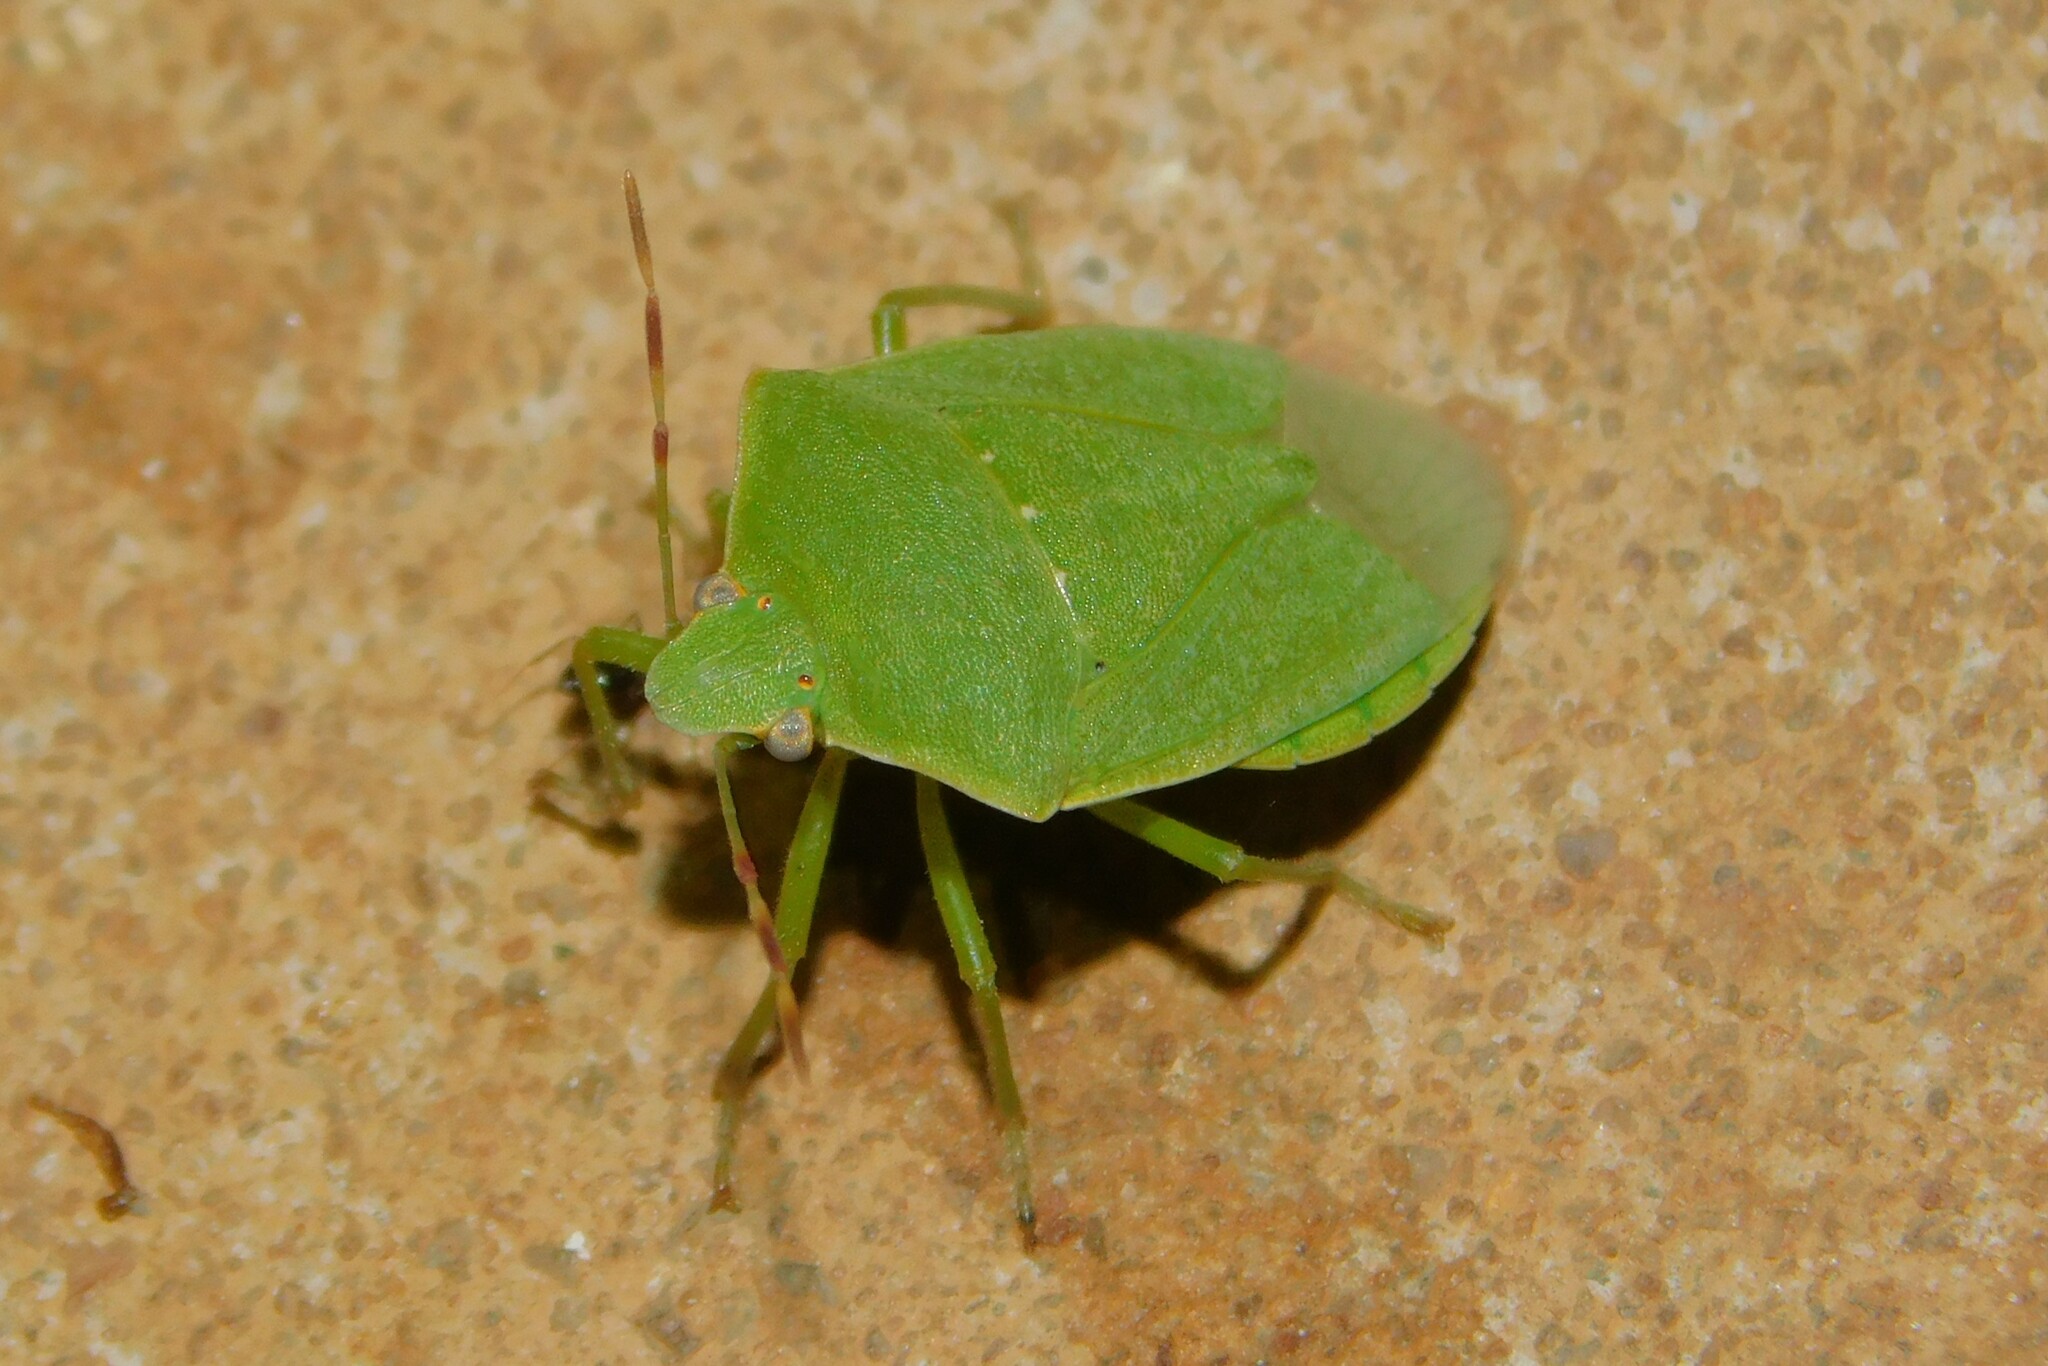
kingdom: Animalia
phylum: Arthropoda
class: Insecta
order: Hemiptera
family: Pentatomidae
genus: Nezara
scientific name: Nezara viridula
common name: Southern green stink bug
